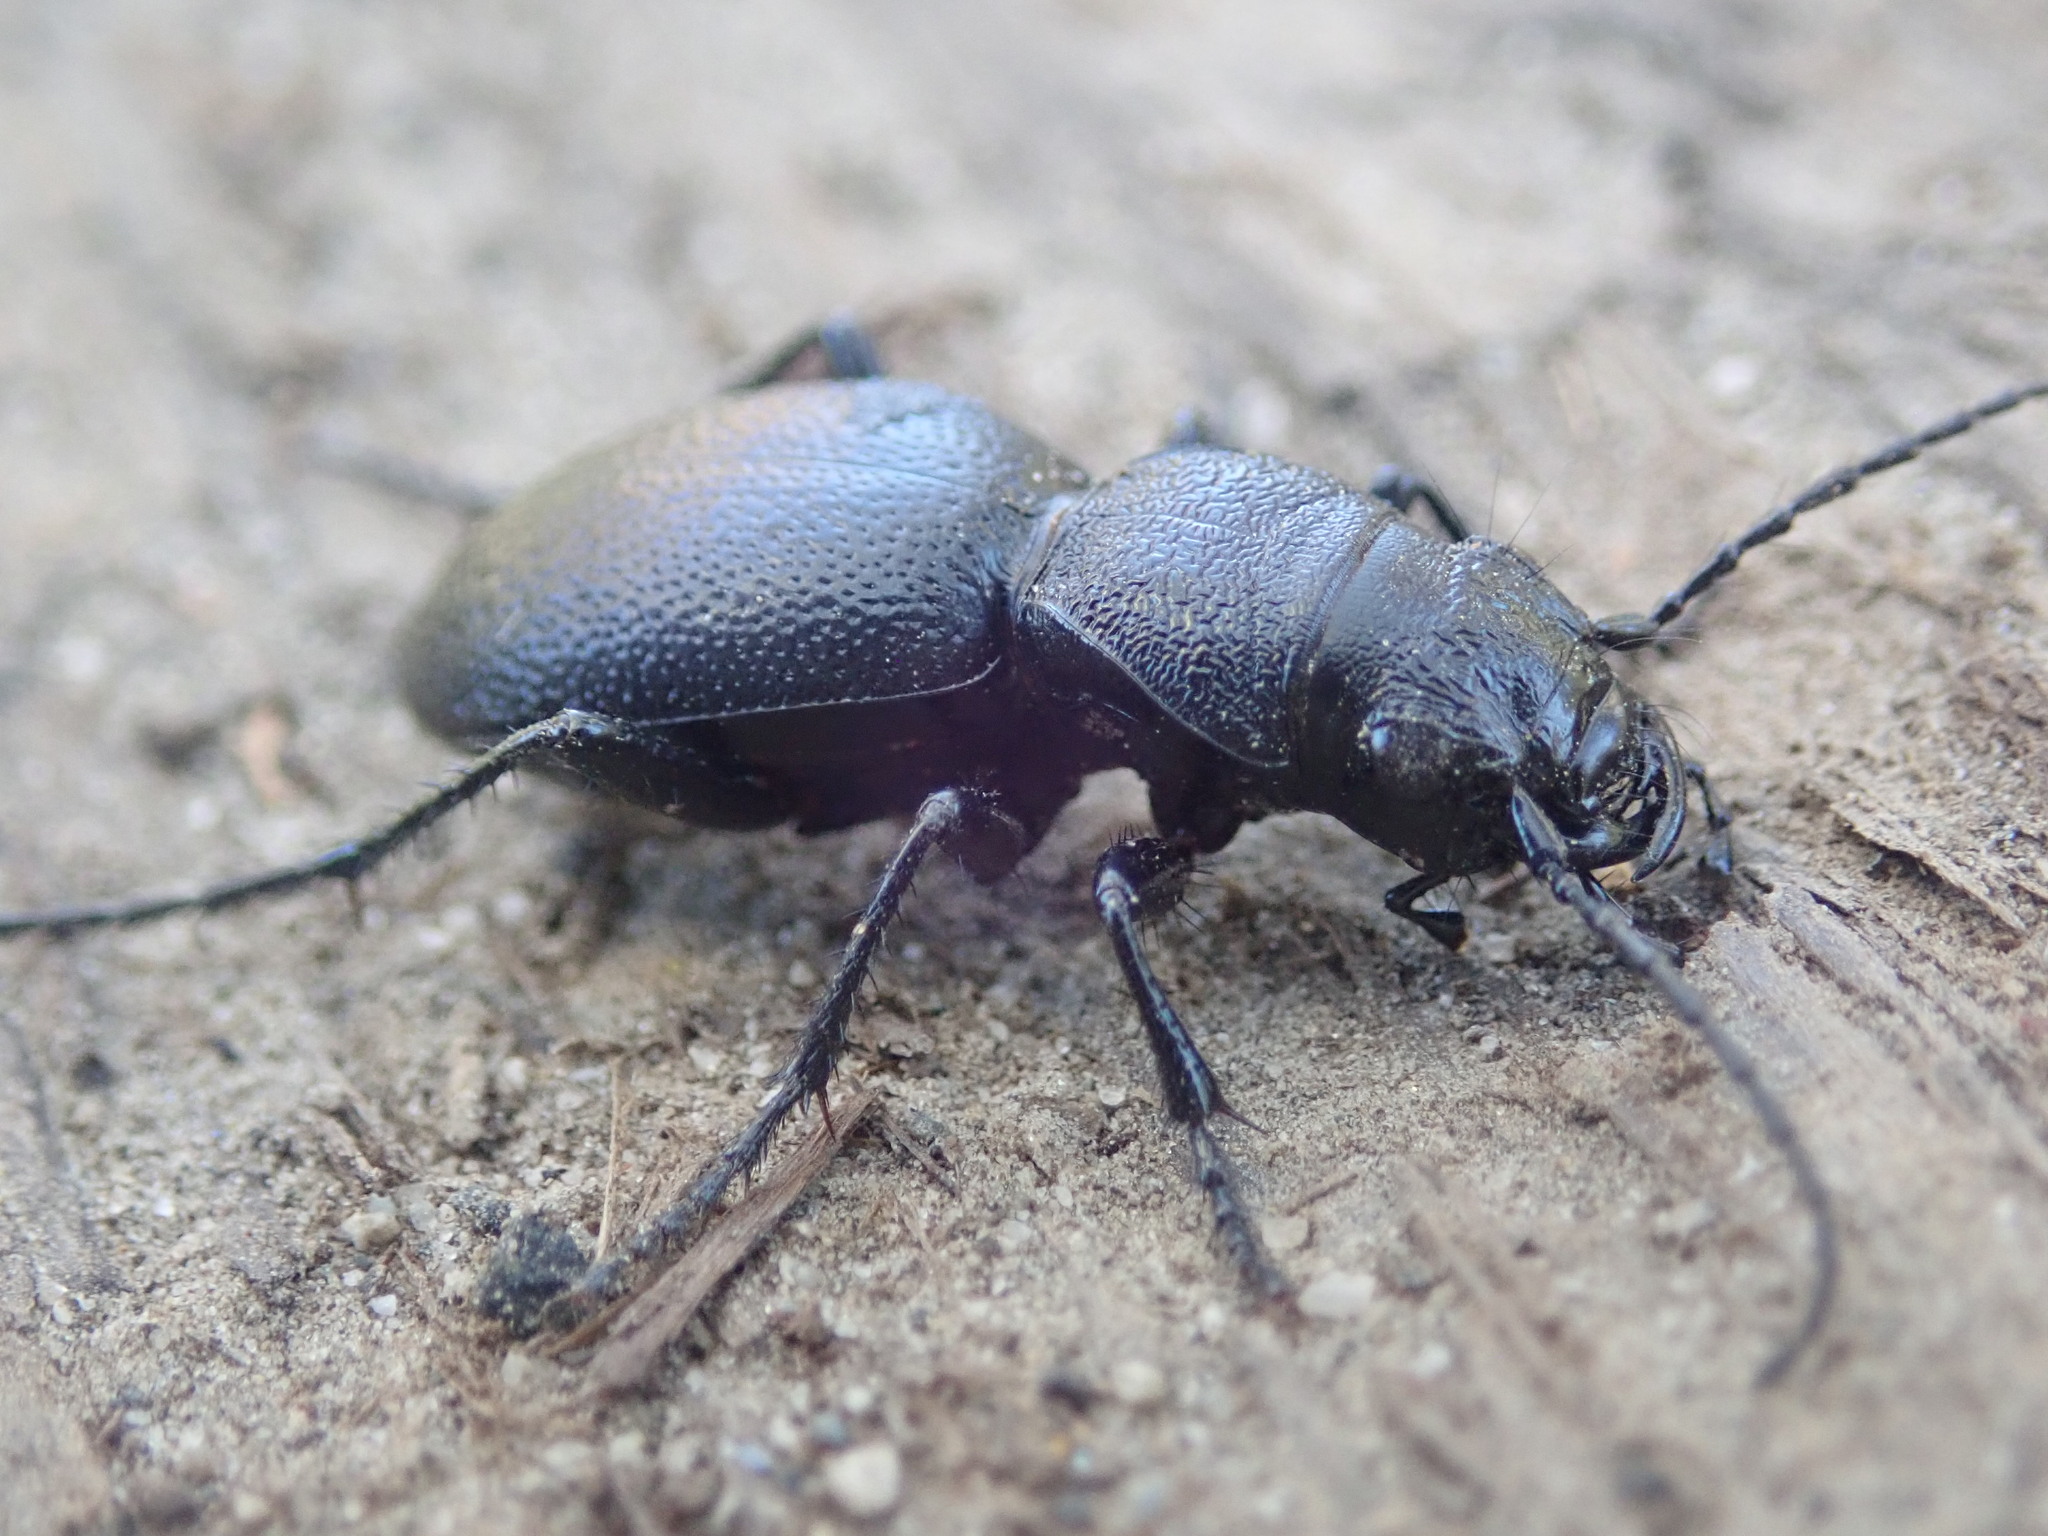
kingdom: Animalia
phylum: Arthropoda
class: Insecta
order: Coleoptera
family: Carabidae
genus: Omus
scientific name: Omus californicus
